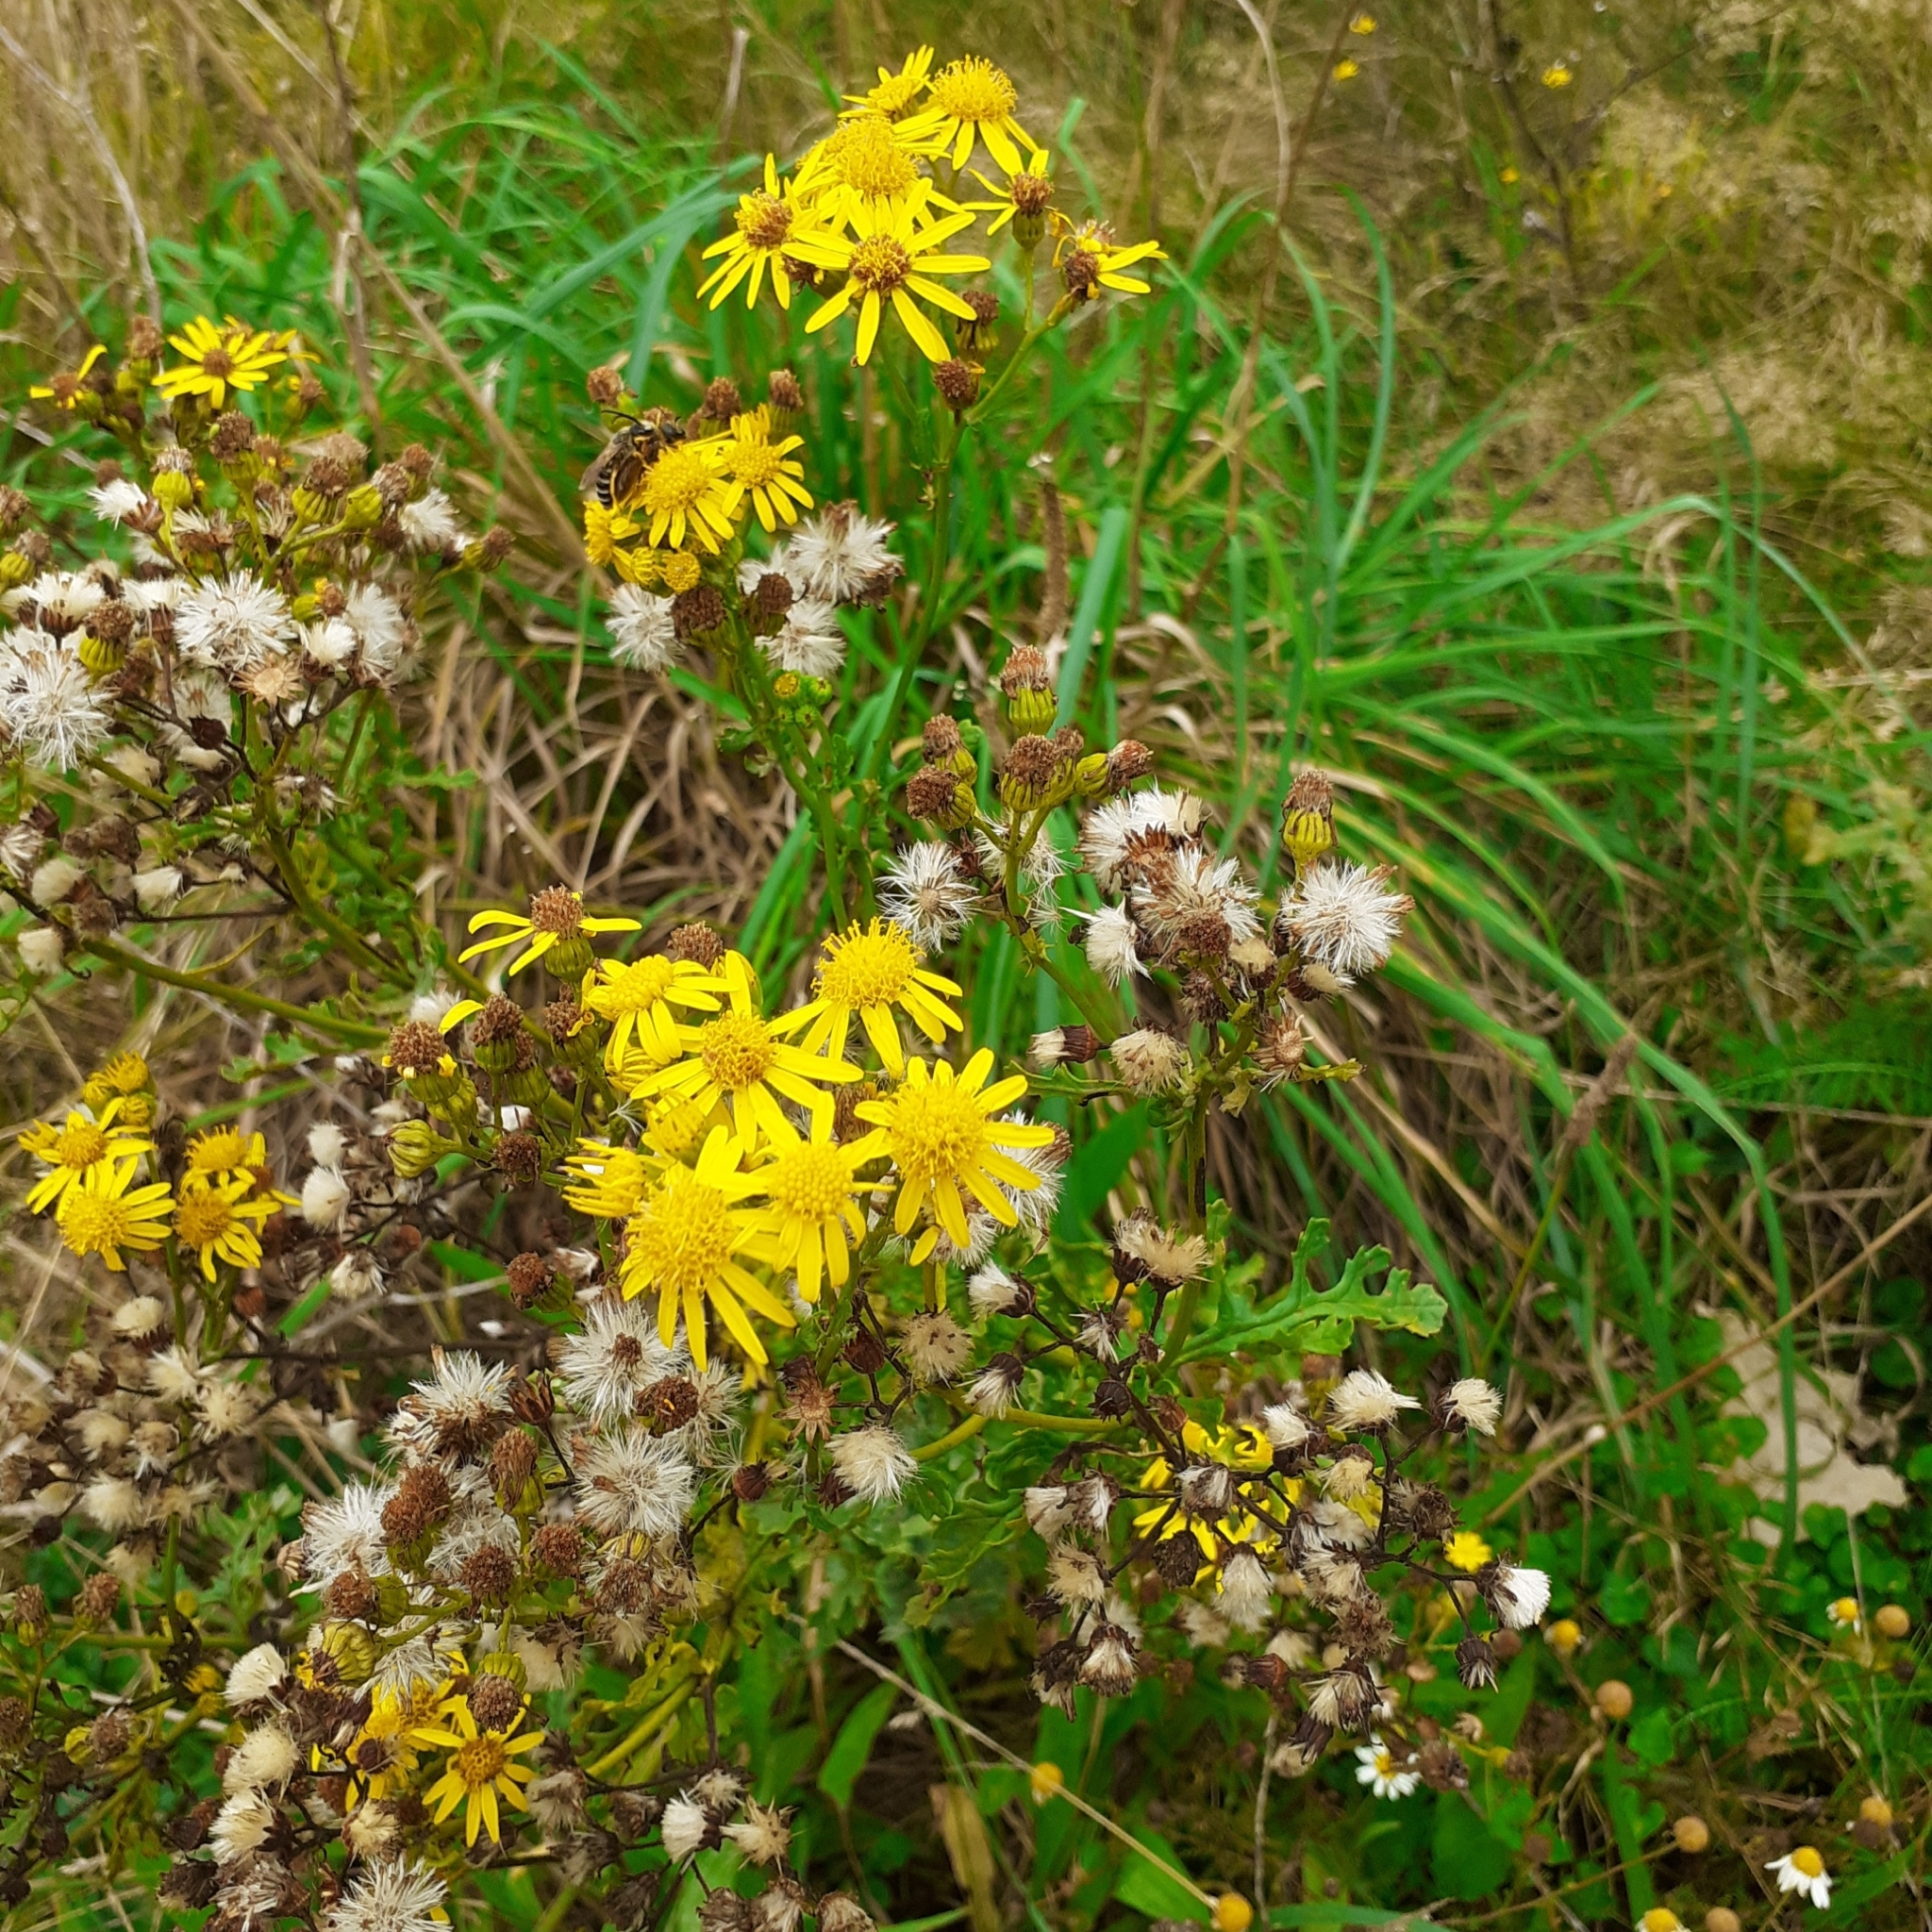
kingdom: Plantae
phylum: Tracheophyta
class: Magnoliopsida
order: Asterales
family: Asteraceae
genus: Jacobaea
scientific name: Jacobaea vulgaris
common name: Stinking willie
